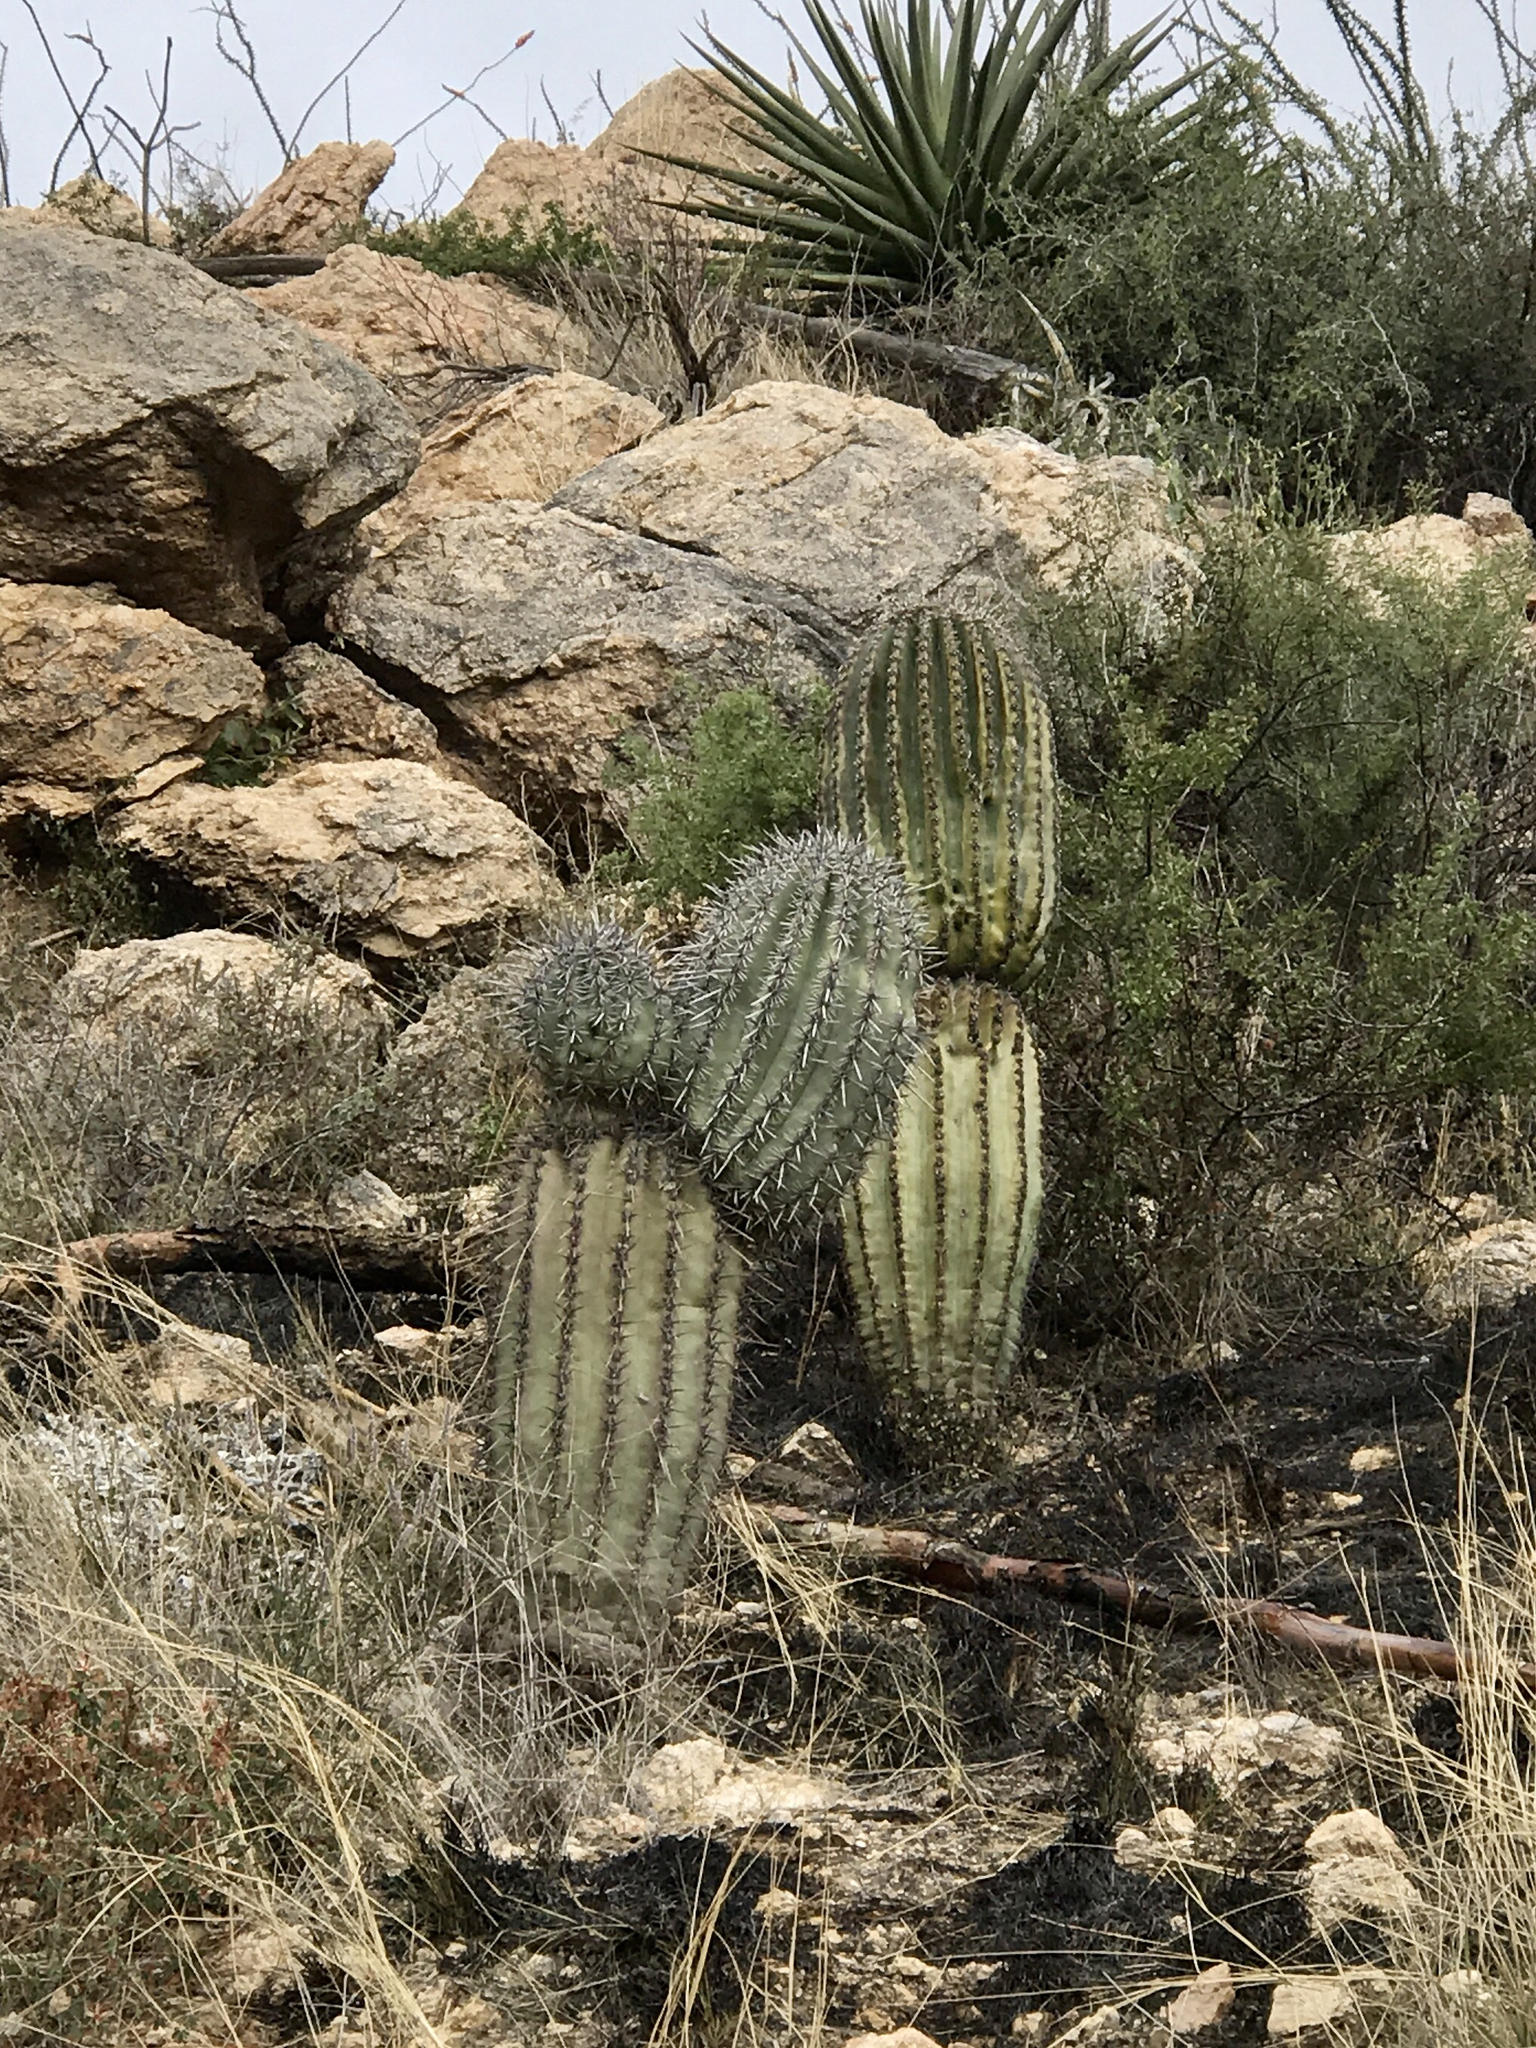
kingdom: Plantae
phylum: Tracheophyta
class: Magnoliopsida
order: Caryophyllales
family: Cactaceae
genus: Carnegiea
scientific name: Carnegiea gigantea
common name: Saguaro
